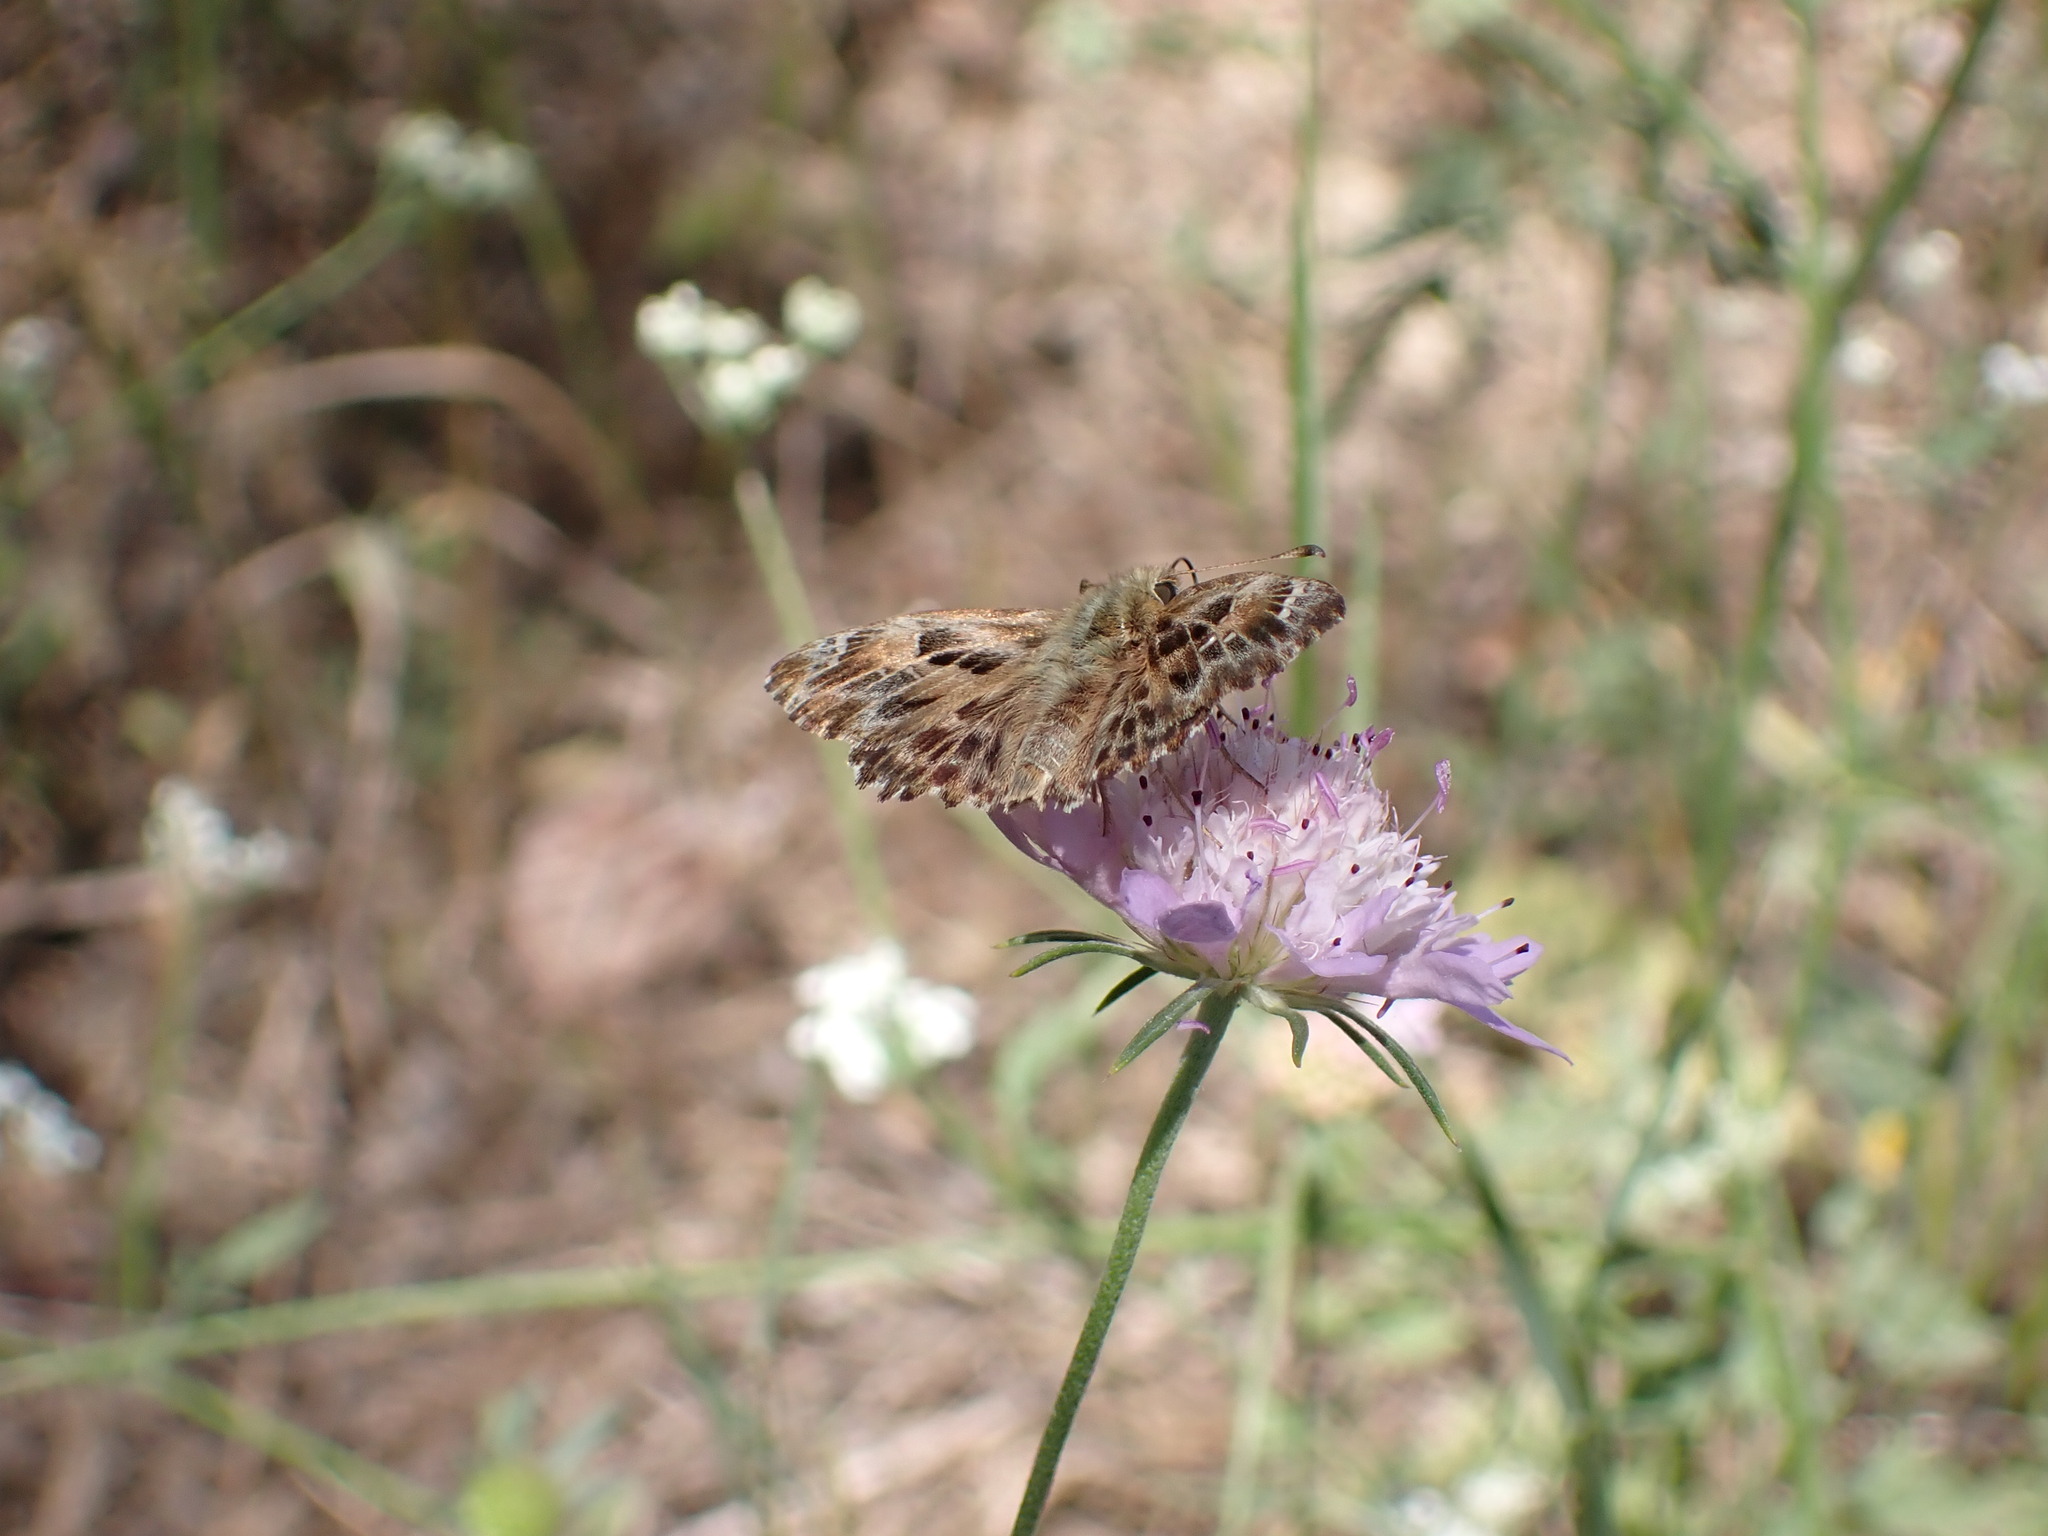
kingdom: Animalia
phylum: Arthropoda
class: Insecta
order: Lepidoptera
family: Hesperiidae
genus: Carcharodus
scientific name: Carcharodus alceae
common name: Mallow skipper
